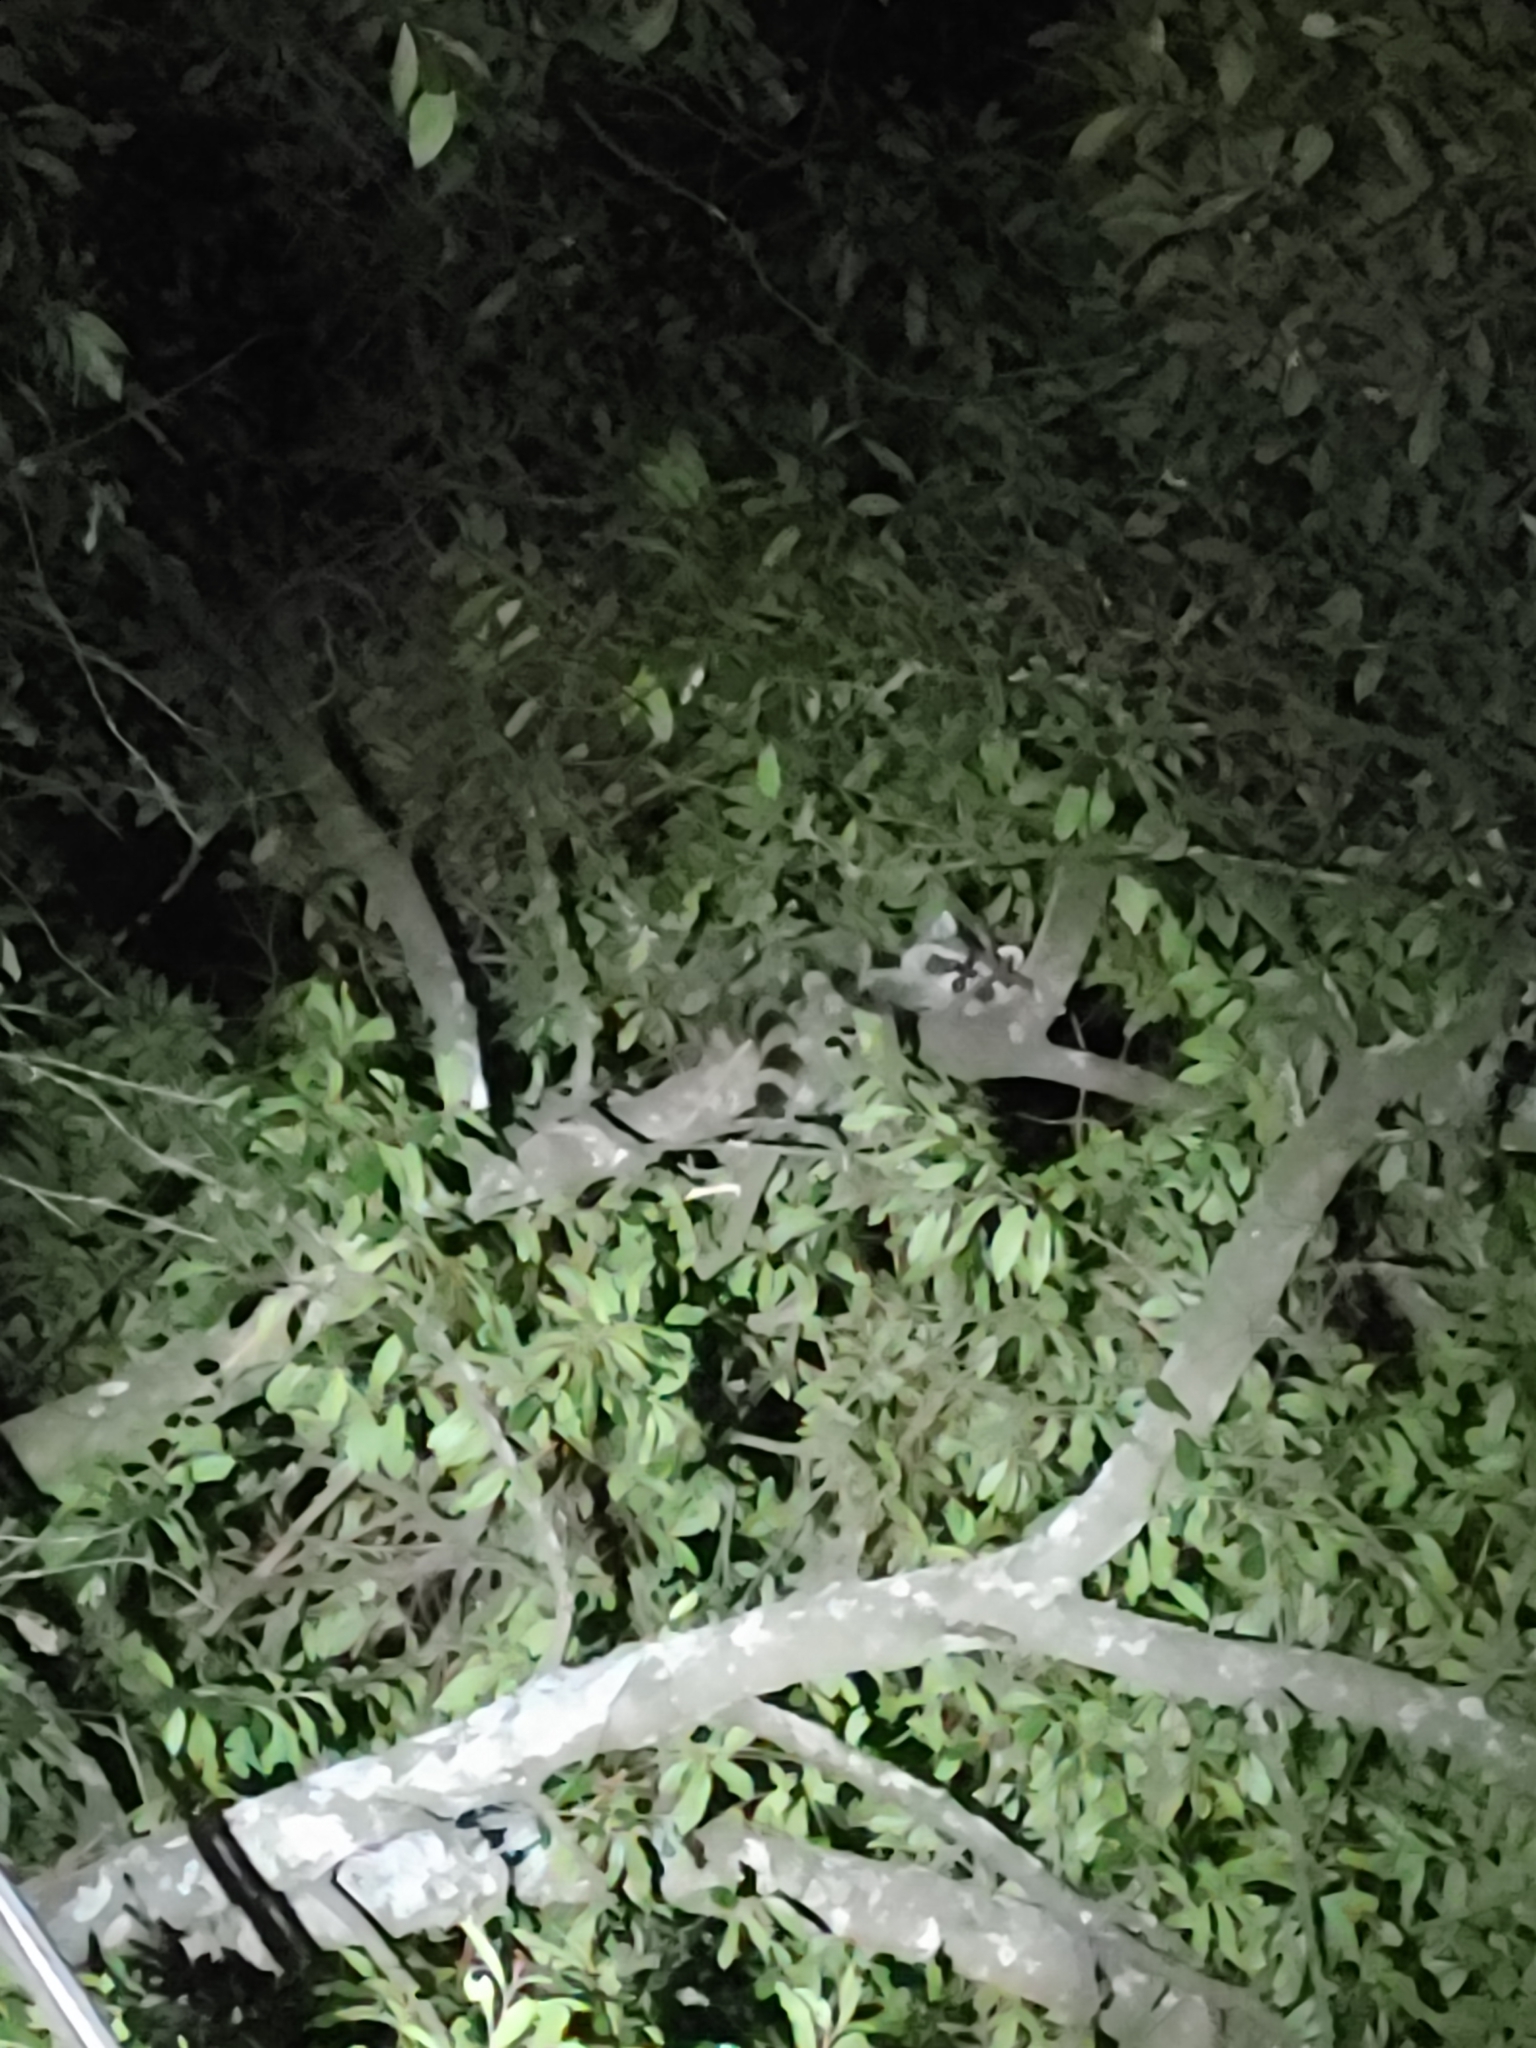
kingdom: Animalia
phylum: Chordata
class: Mammalia
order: Carnivora
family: Procyonidae
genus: Procyon
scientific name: Procyon lotor
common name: Raccoon
